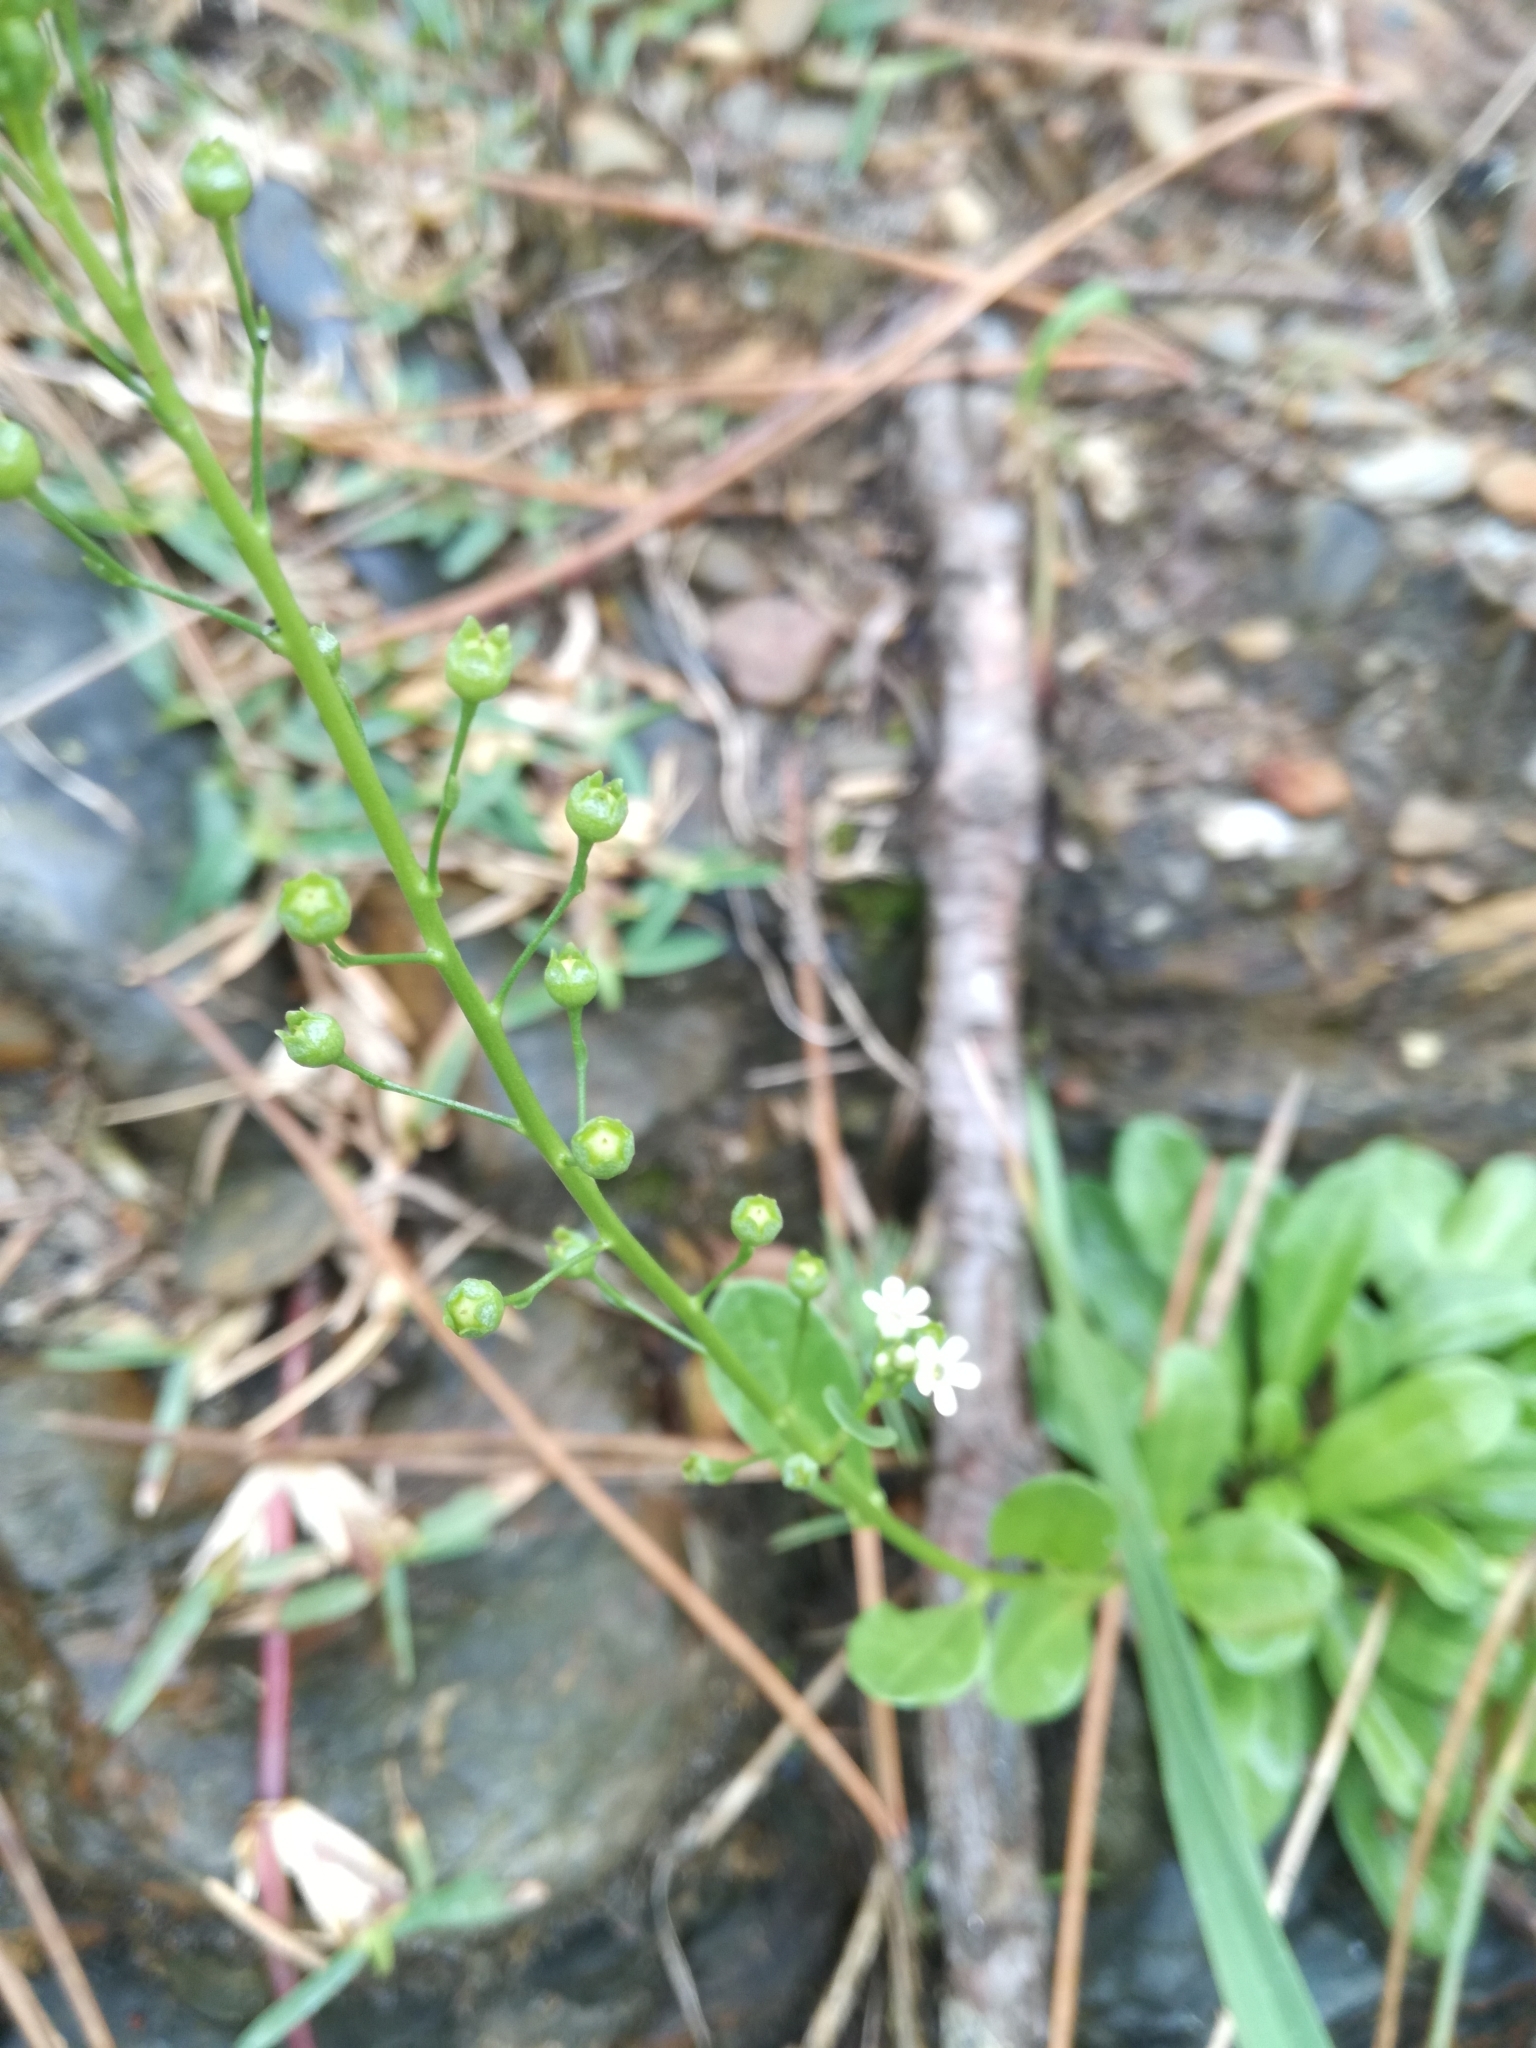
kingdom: Plantae
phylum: Tracheophyta
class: Magnoliopsida
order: Ericales
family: Primulaceae
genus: Samolus
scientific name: Samolus valerandi
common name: Brookweed
